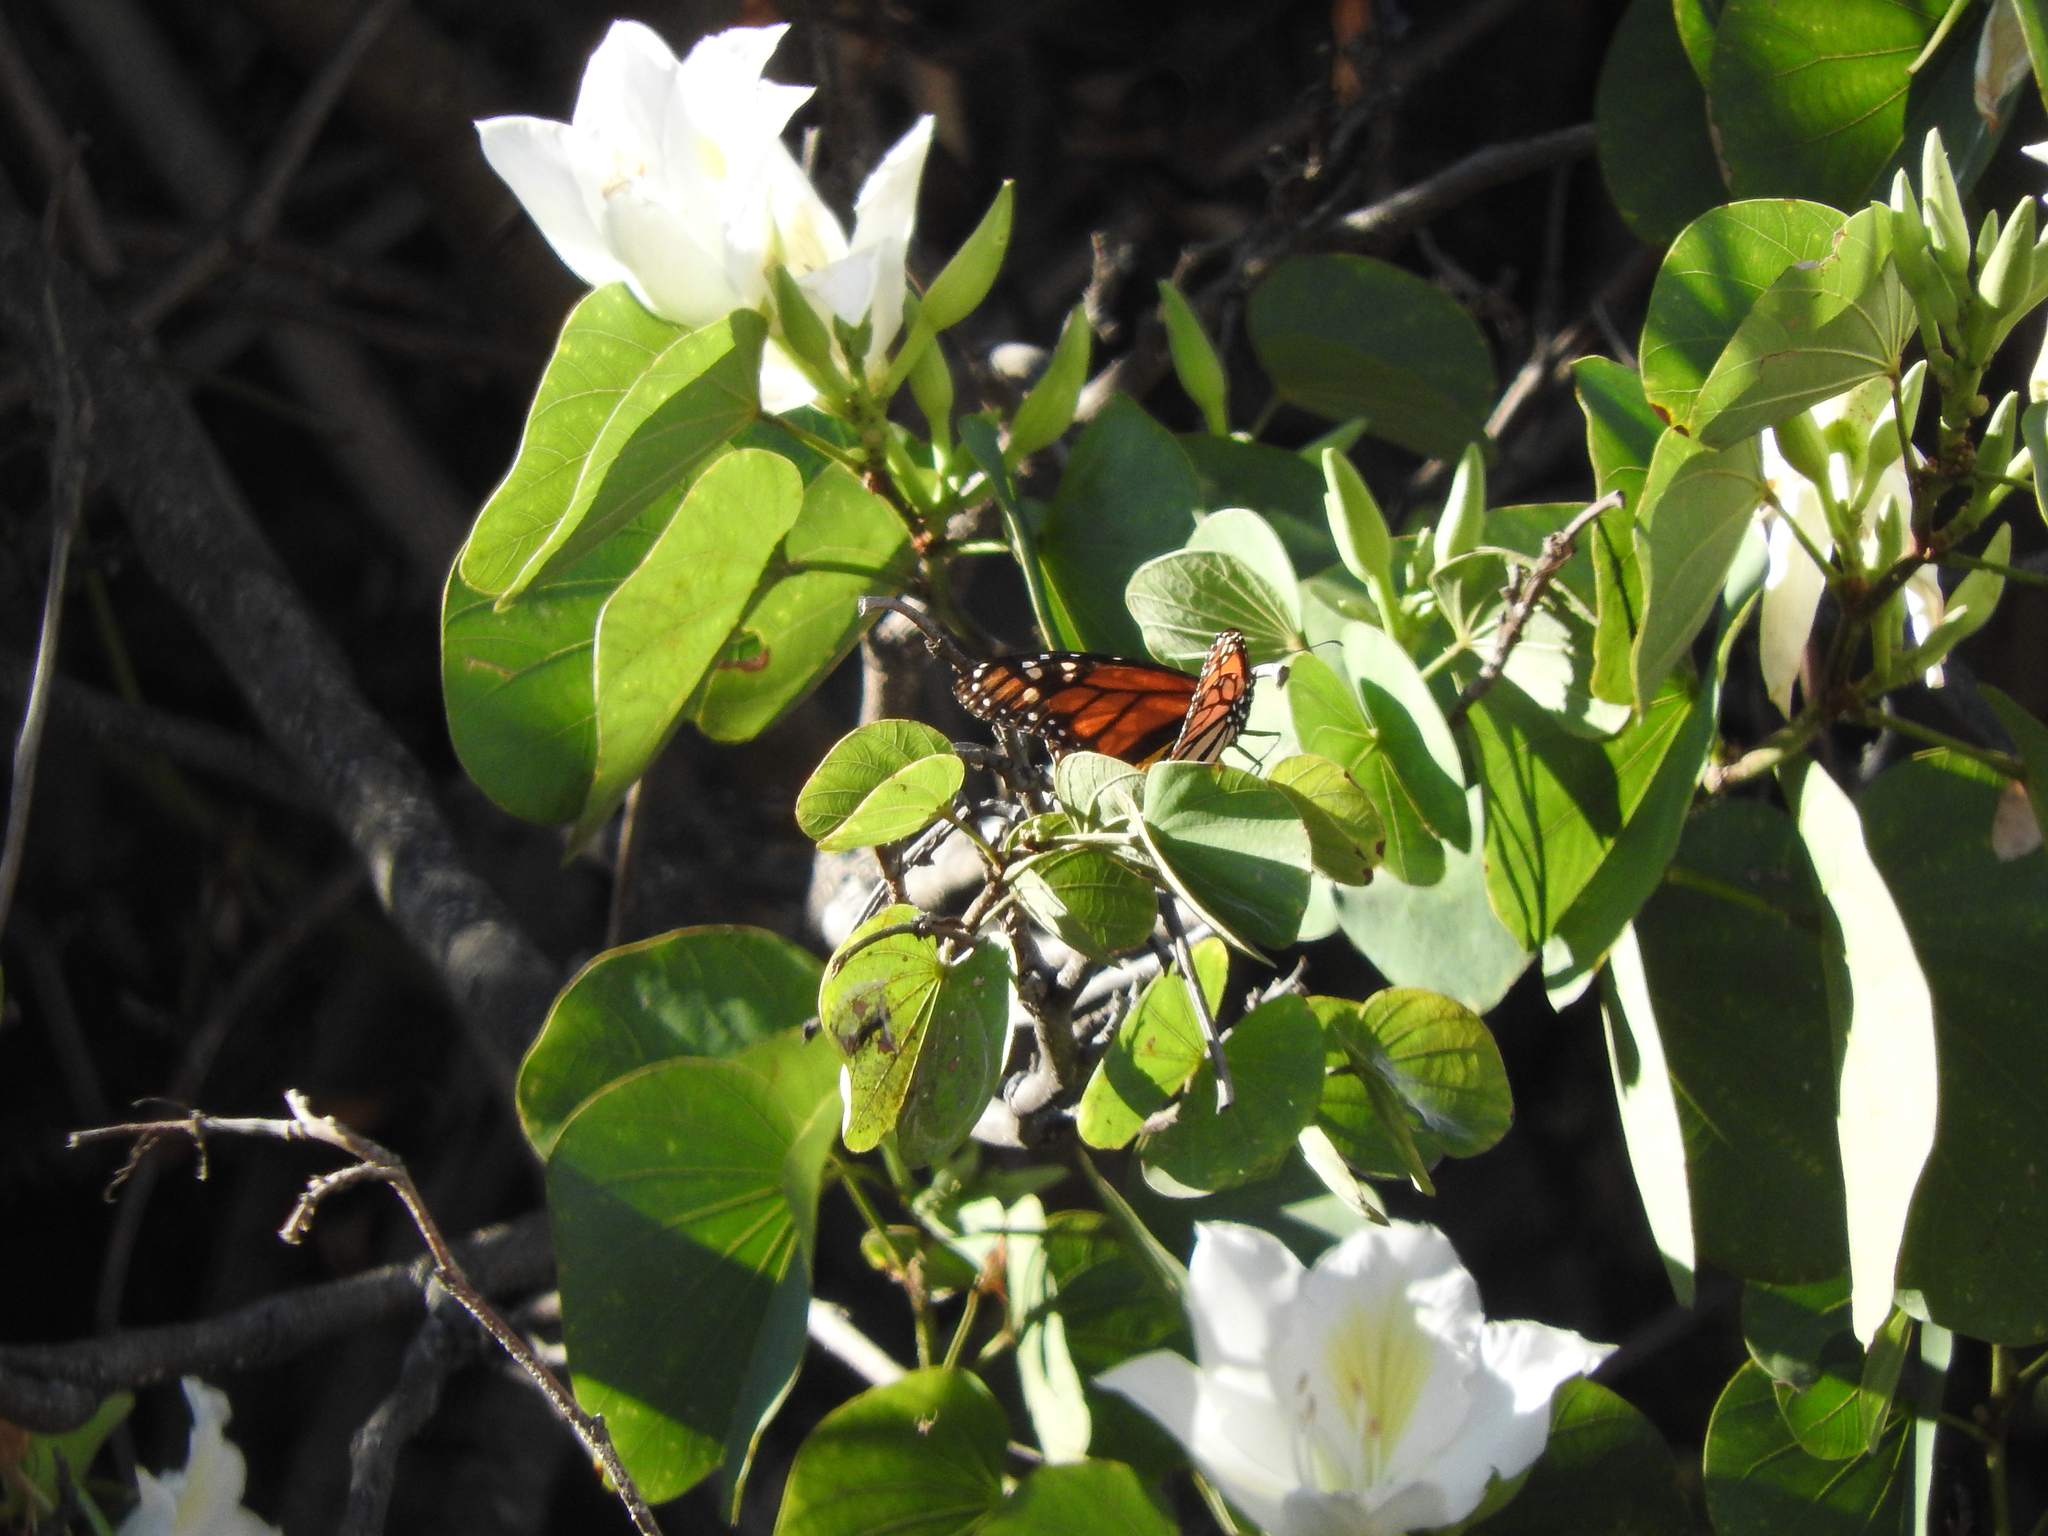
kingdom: Animalia
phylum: Arthropoda
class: Insecta
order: Lepidoptera
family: Nymphalidae
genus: Danaus
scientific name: Danaus plexippus
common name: Monarch
